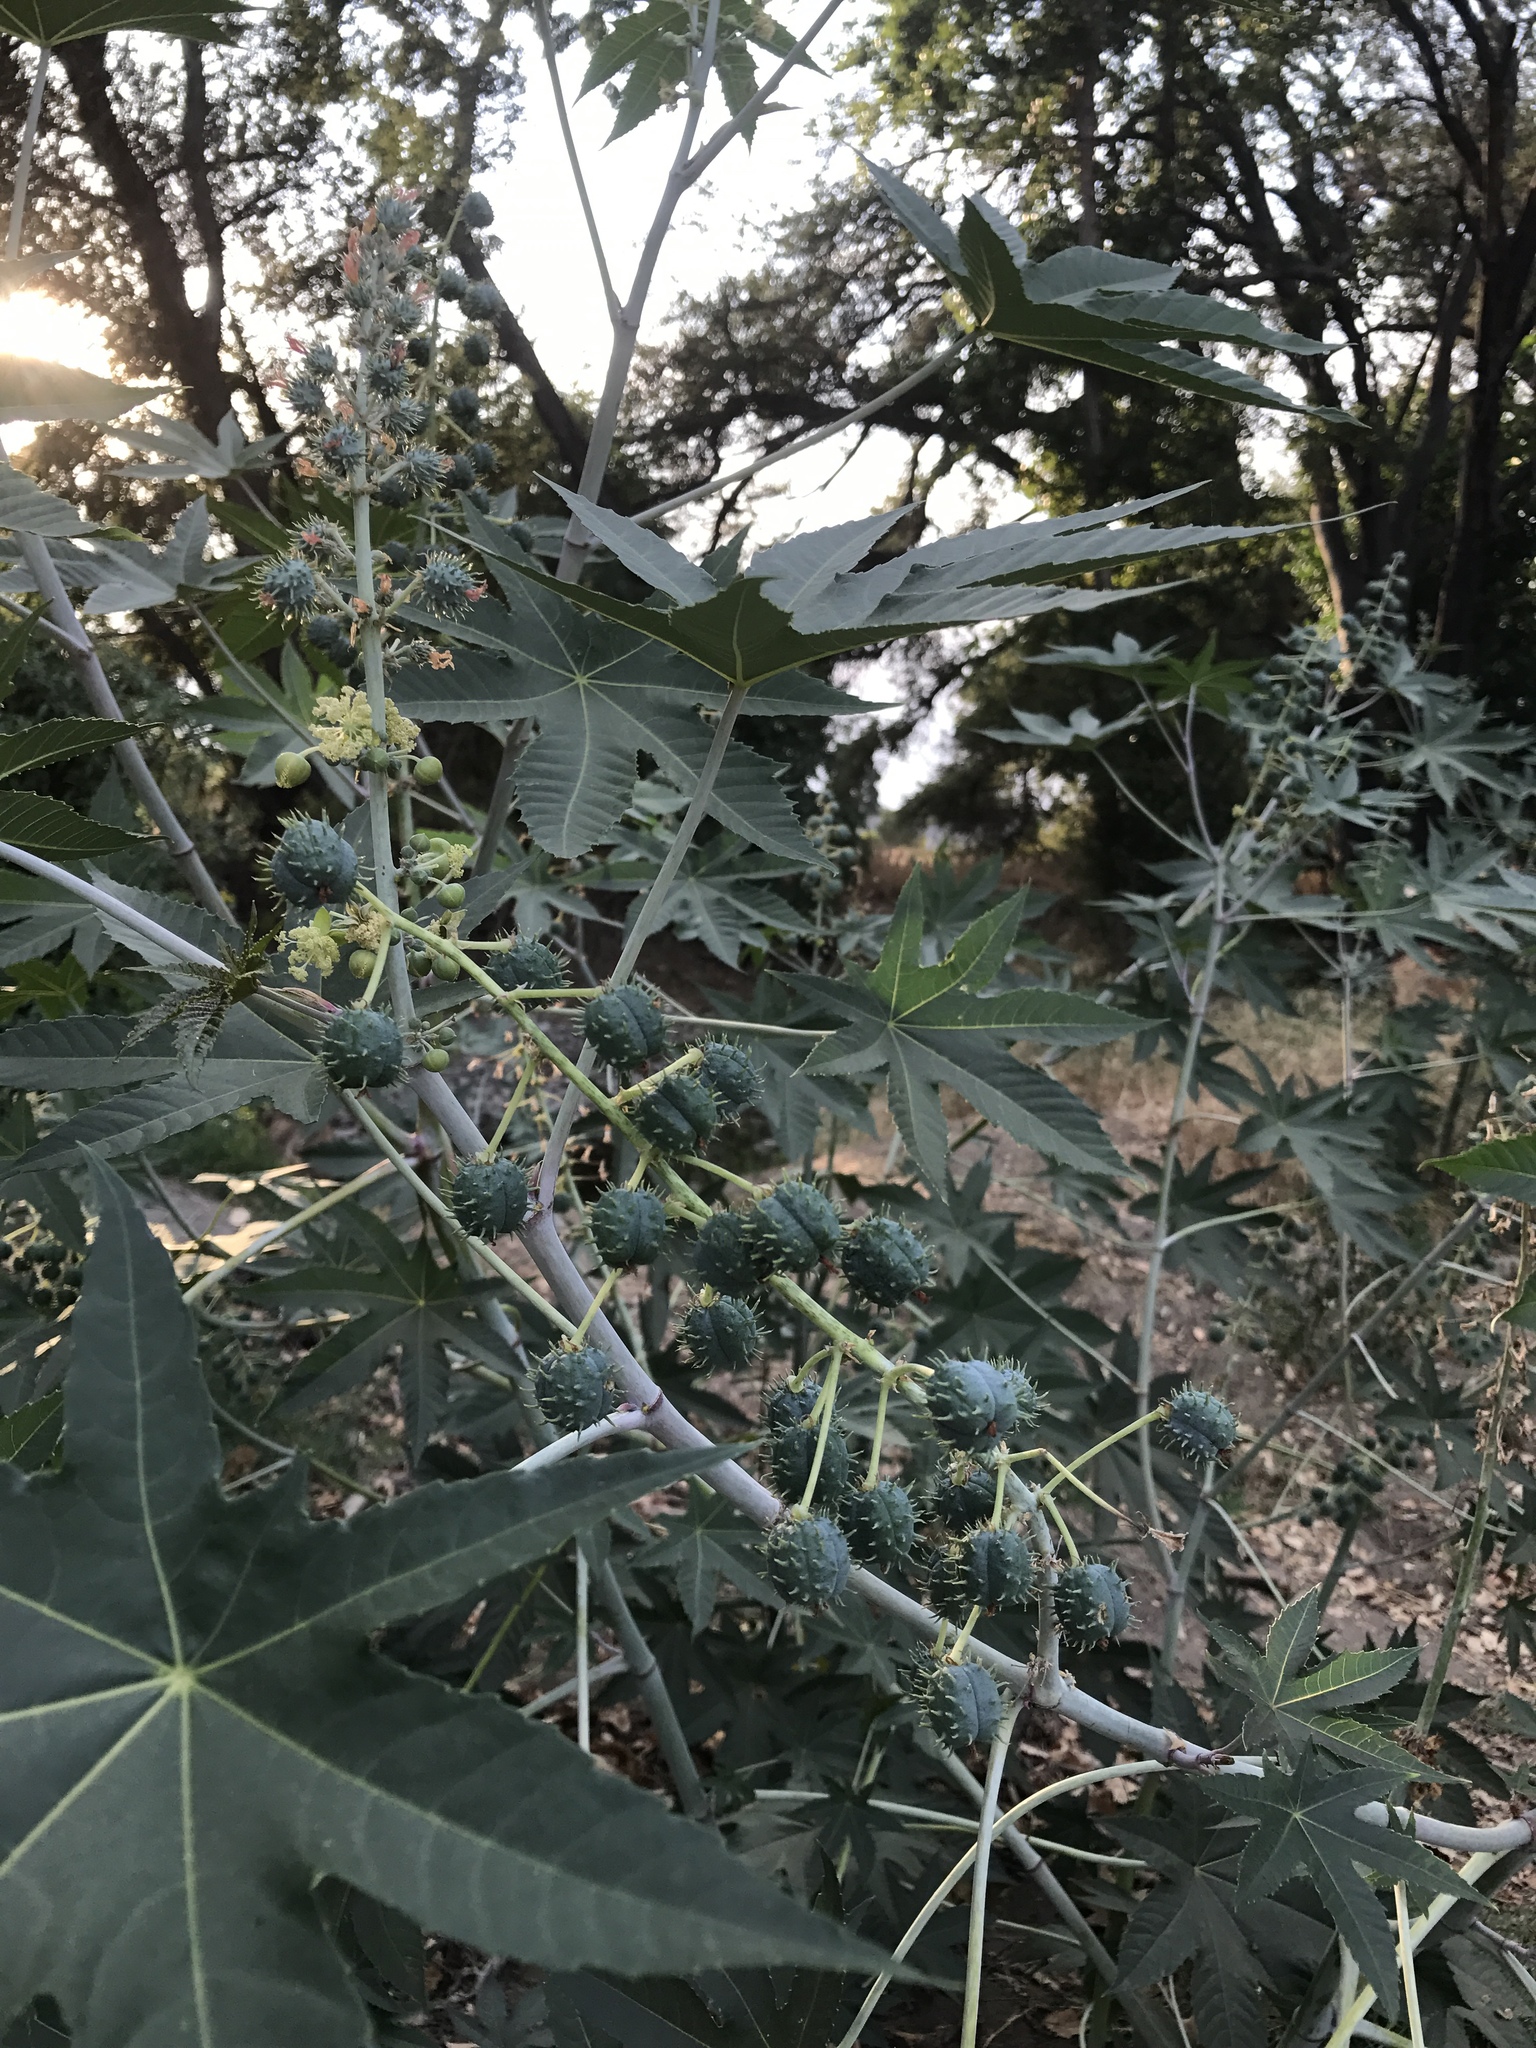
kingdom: Plantae
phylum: Tracheophyta
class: Magnoliopsida
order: Malpighiales
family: Euphorbiaceae
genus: Ricinus
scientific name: Ricinus communis
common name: Castor-oil-plant
